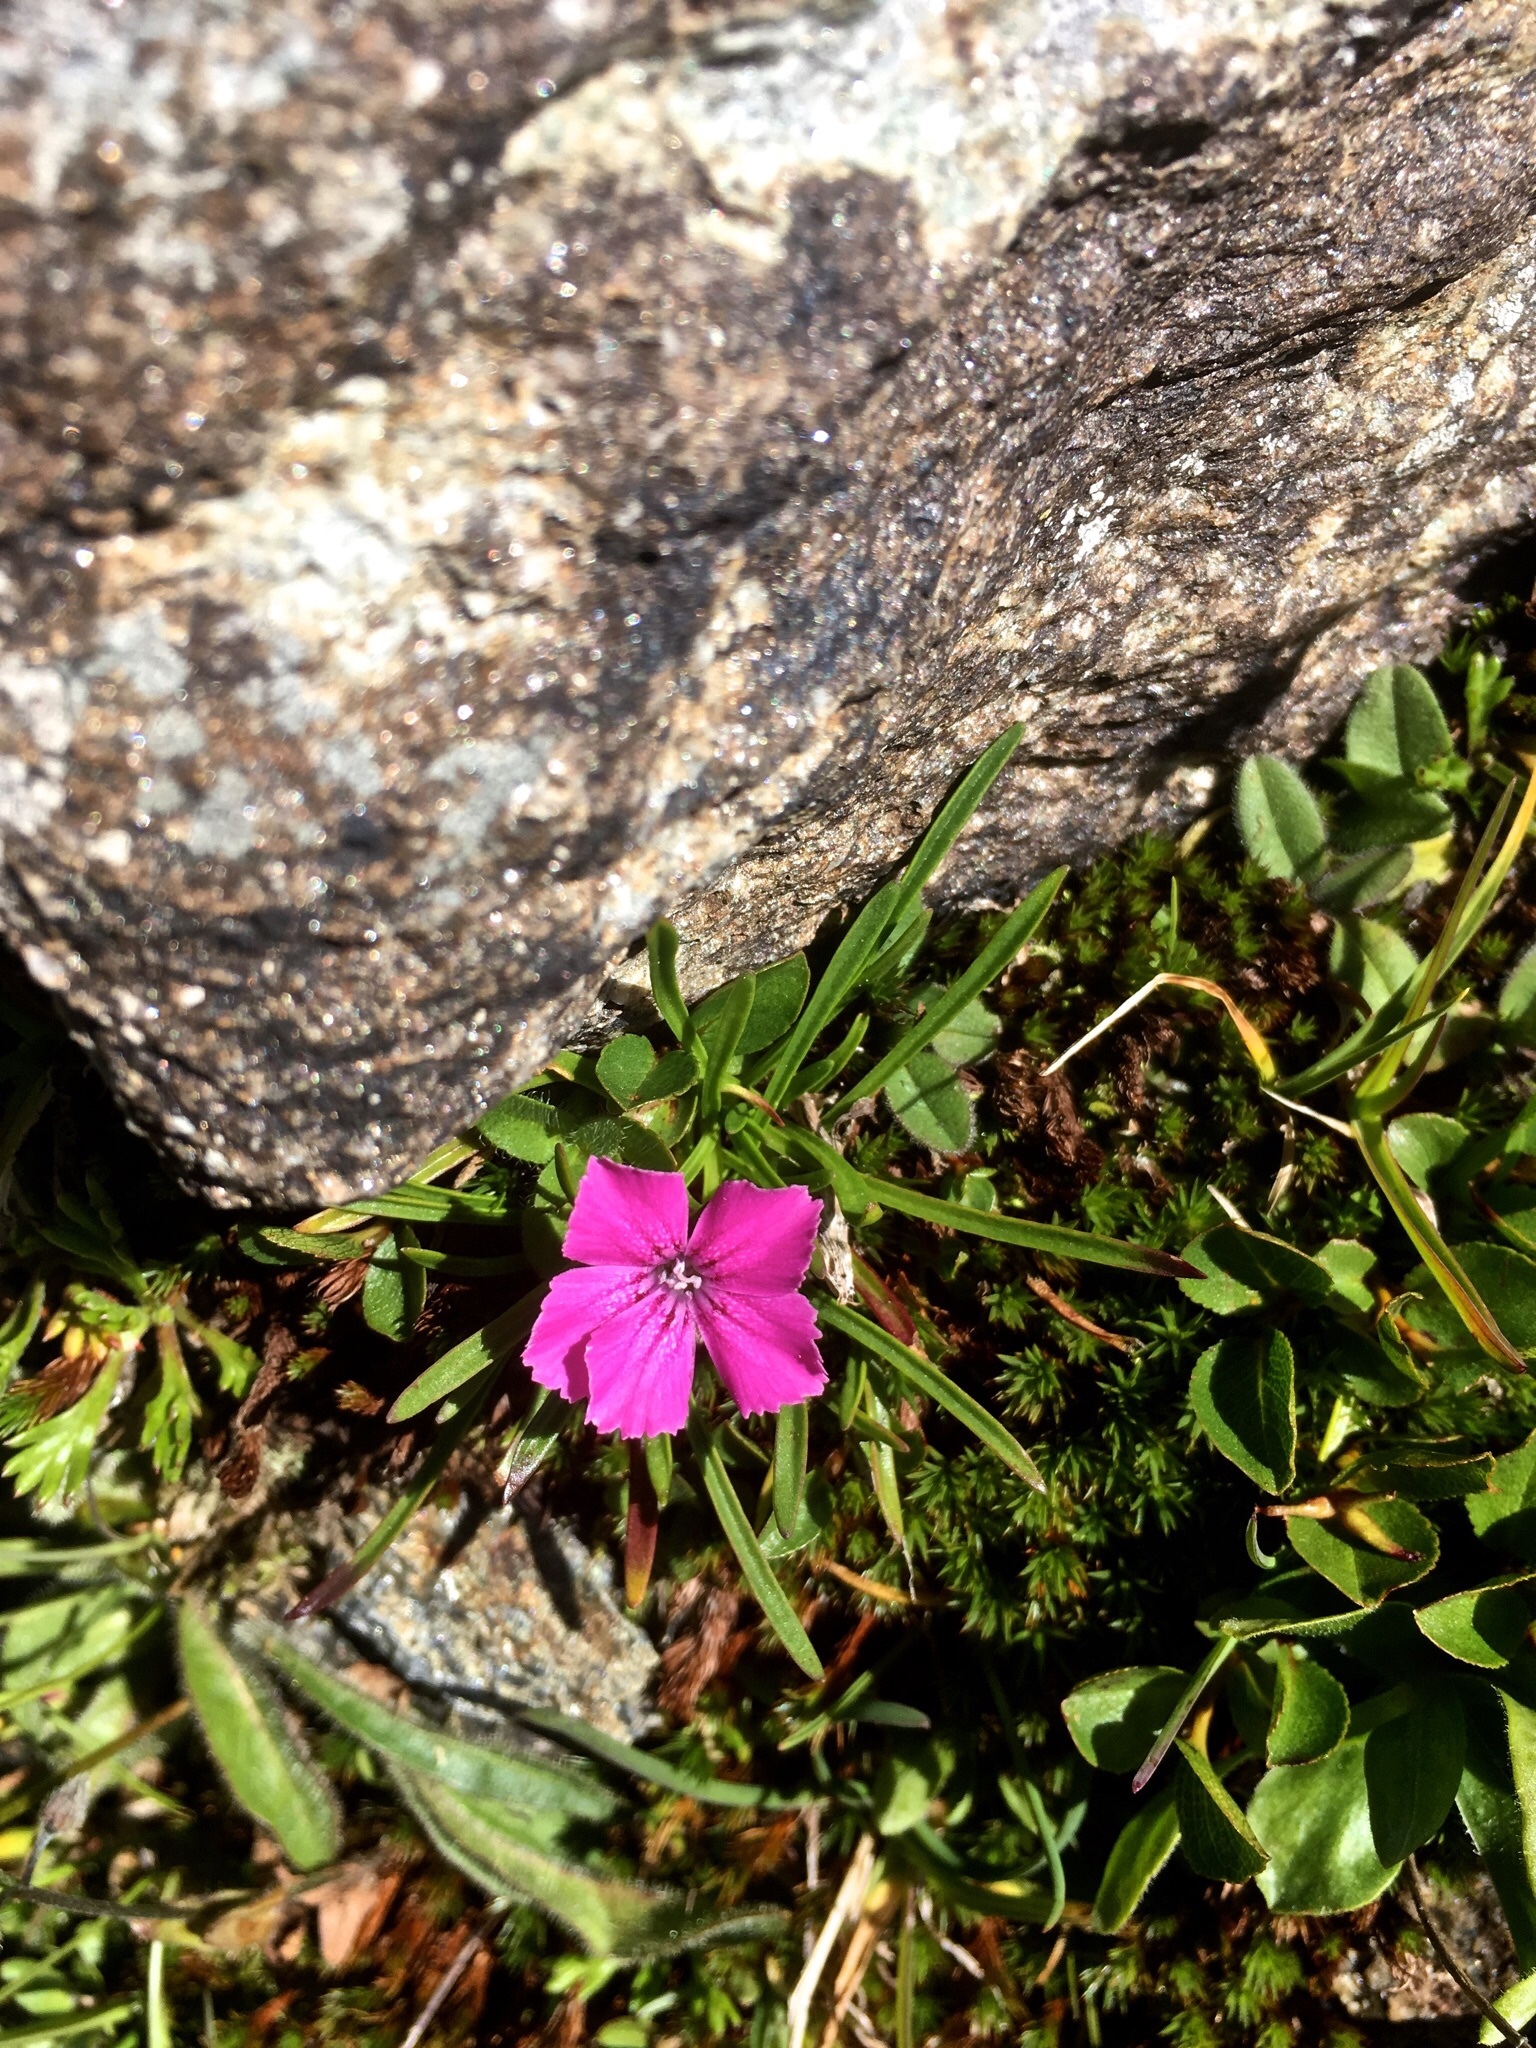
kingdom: Plantae
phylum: Tracheophyta
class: Magnoliopsida
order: Caryophyllales
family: Caryophyllaceae
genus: Dianthus
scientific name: Dianthus glacialis
